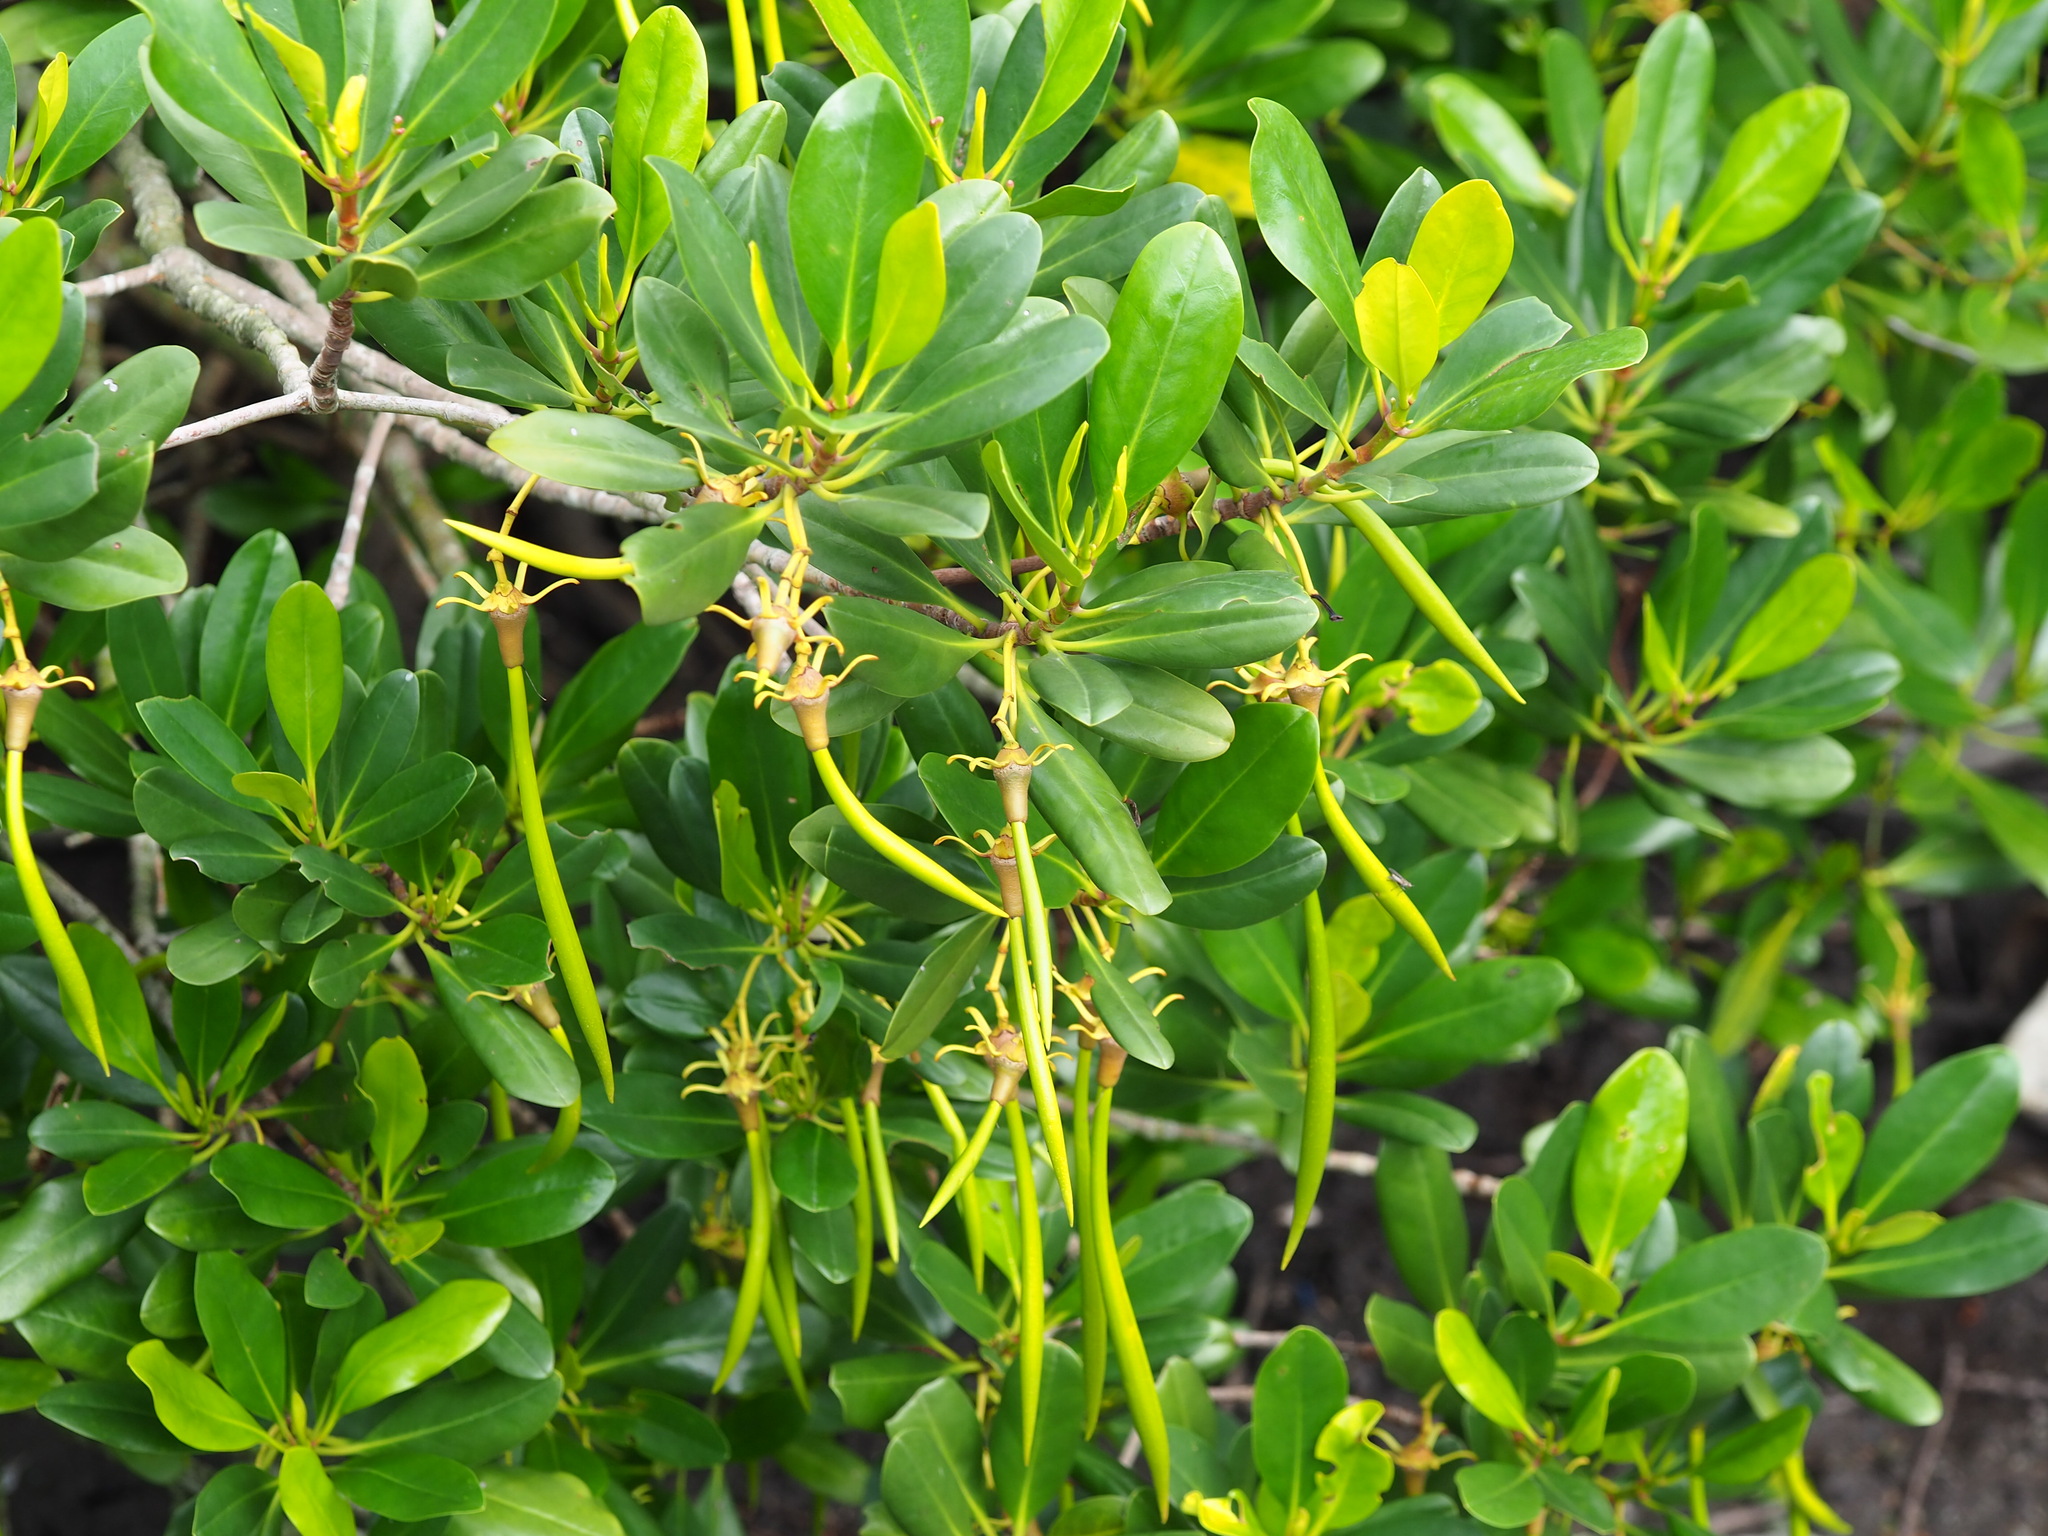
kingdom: Plantae
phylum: Tracheophyta
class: Magnoliopsida
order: Malpighiales
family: Rhizophoraceae
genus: Kandelia
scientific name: Kandelia obovata
